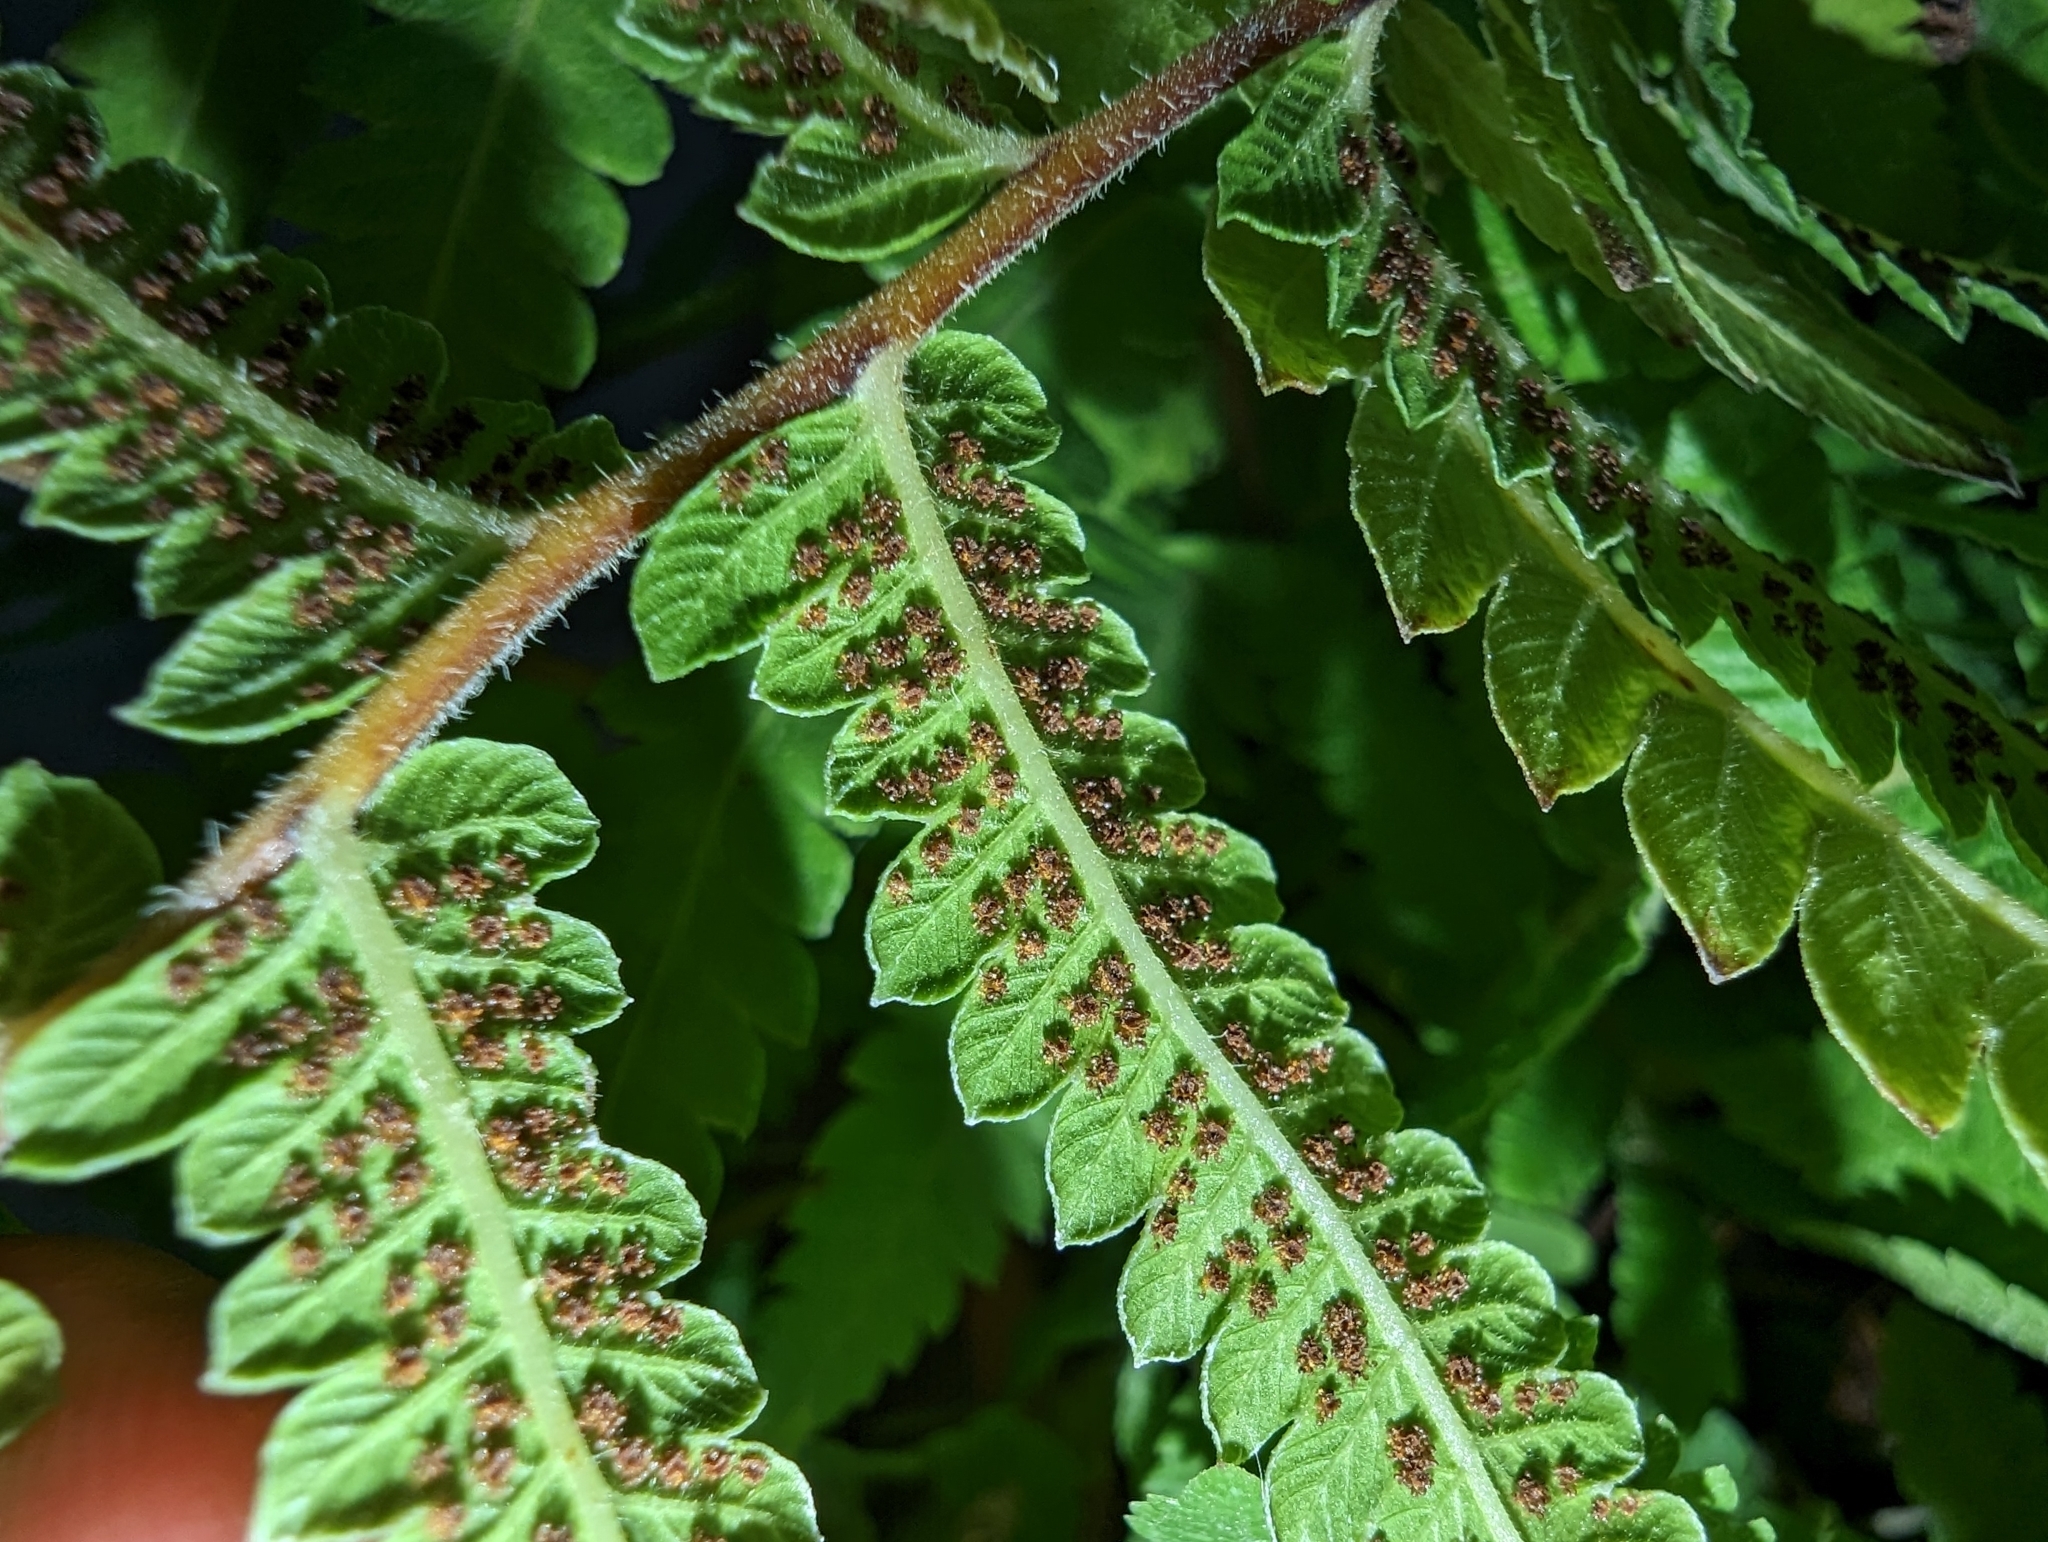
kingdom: Plantae
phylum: Tracheophyta
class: Polypodiopsida
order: Polypodiales
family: Thelypteridaceae
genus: Christella
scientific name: Christella acuminata
